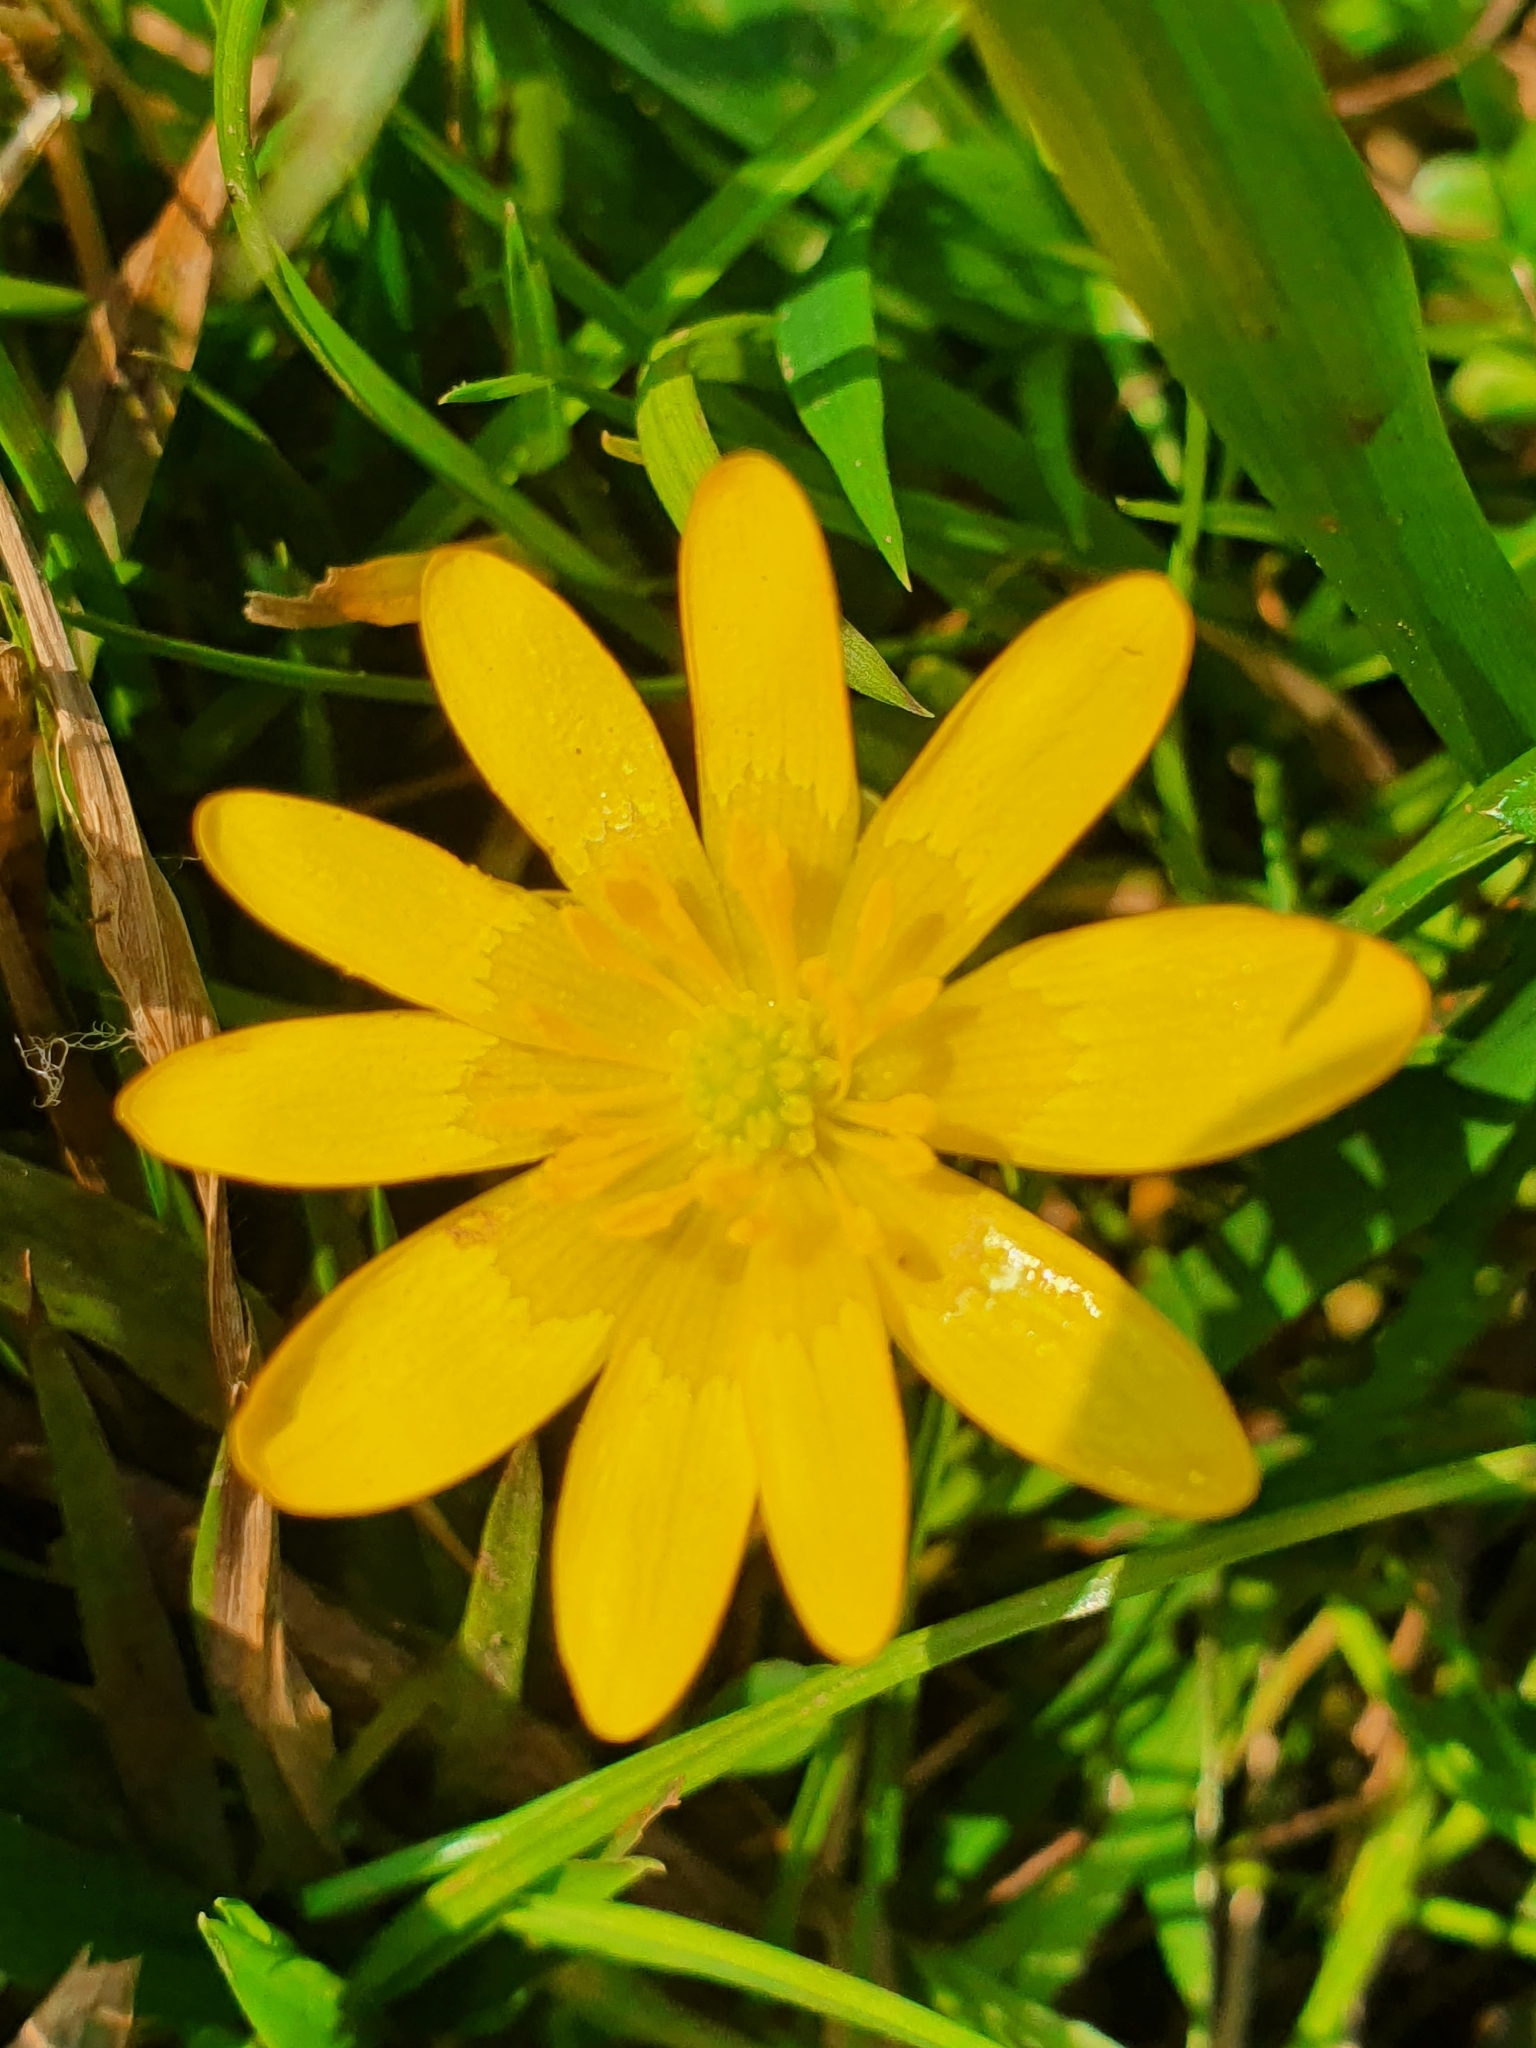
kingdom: Plantae
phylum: Tracheophyta
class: Magnoliopsida
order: Ranunculales
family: Ranunculaceae
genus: Ficaria
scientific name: Ficaria verna
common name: Lesser celandine
